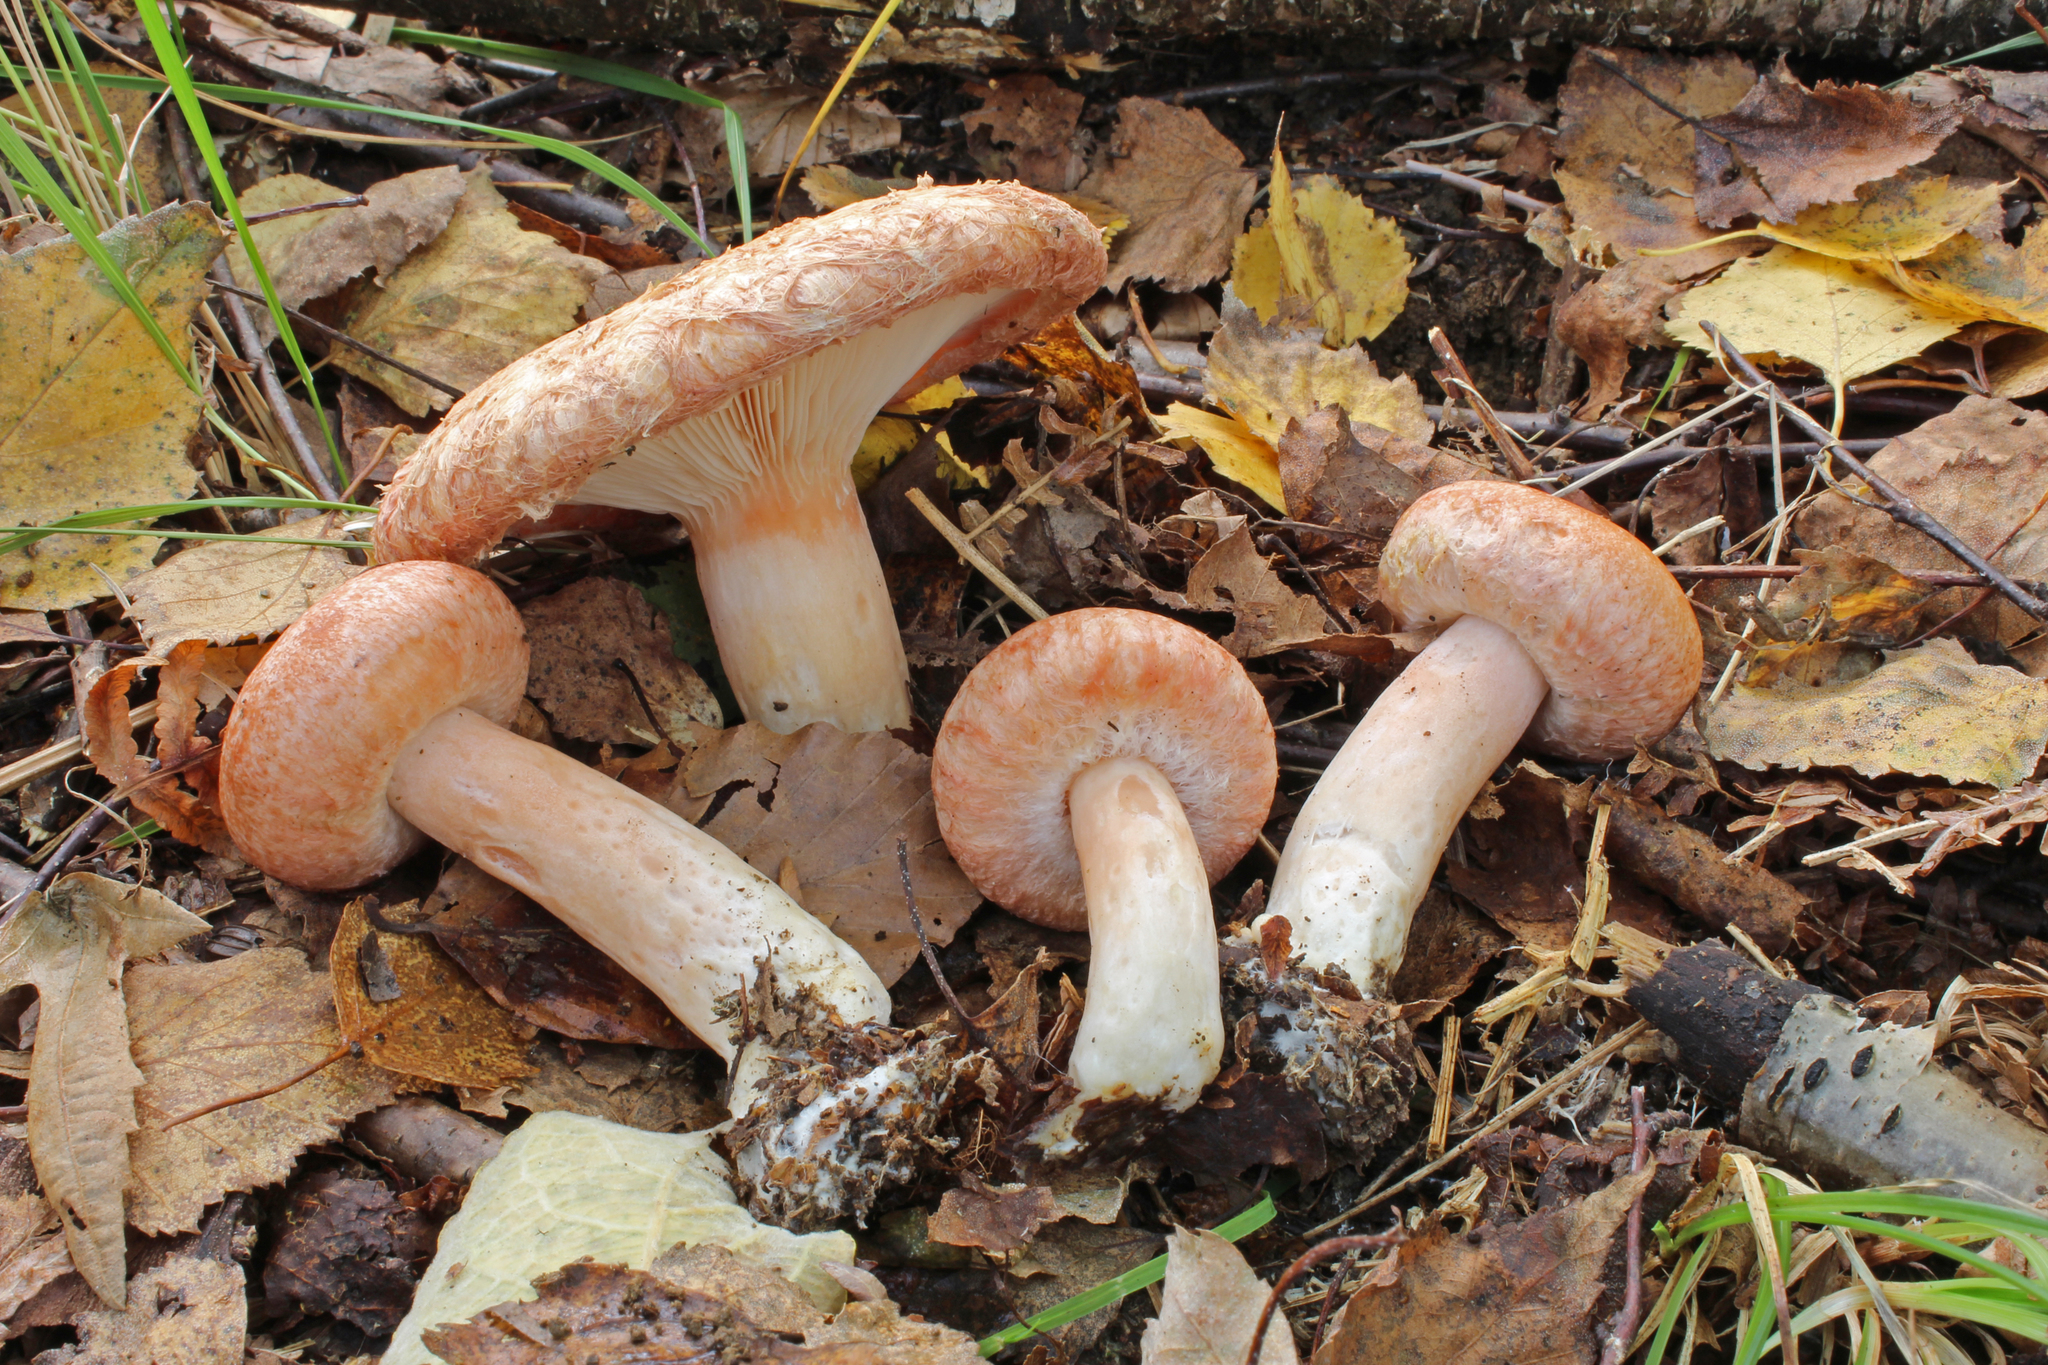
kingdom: Fungi
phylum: Basidiomycota
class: Agaricomycetes
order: Russulales
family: Russulaceae
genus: Lactarius
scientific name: Lactarius torminosus
